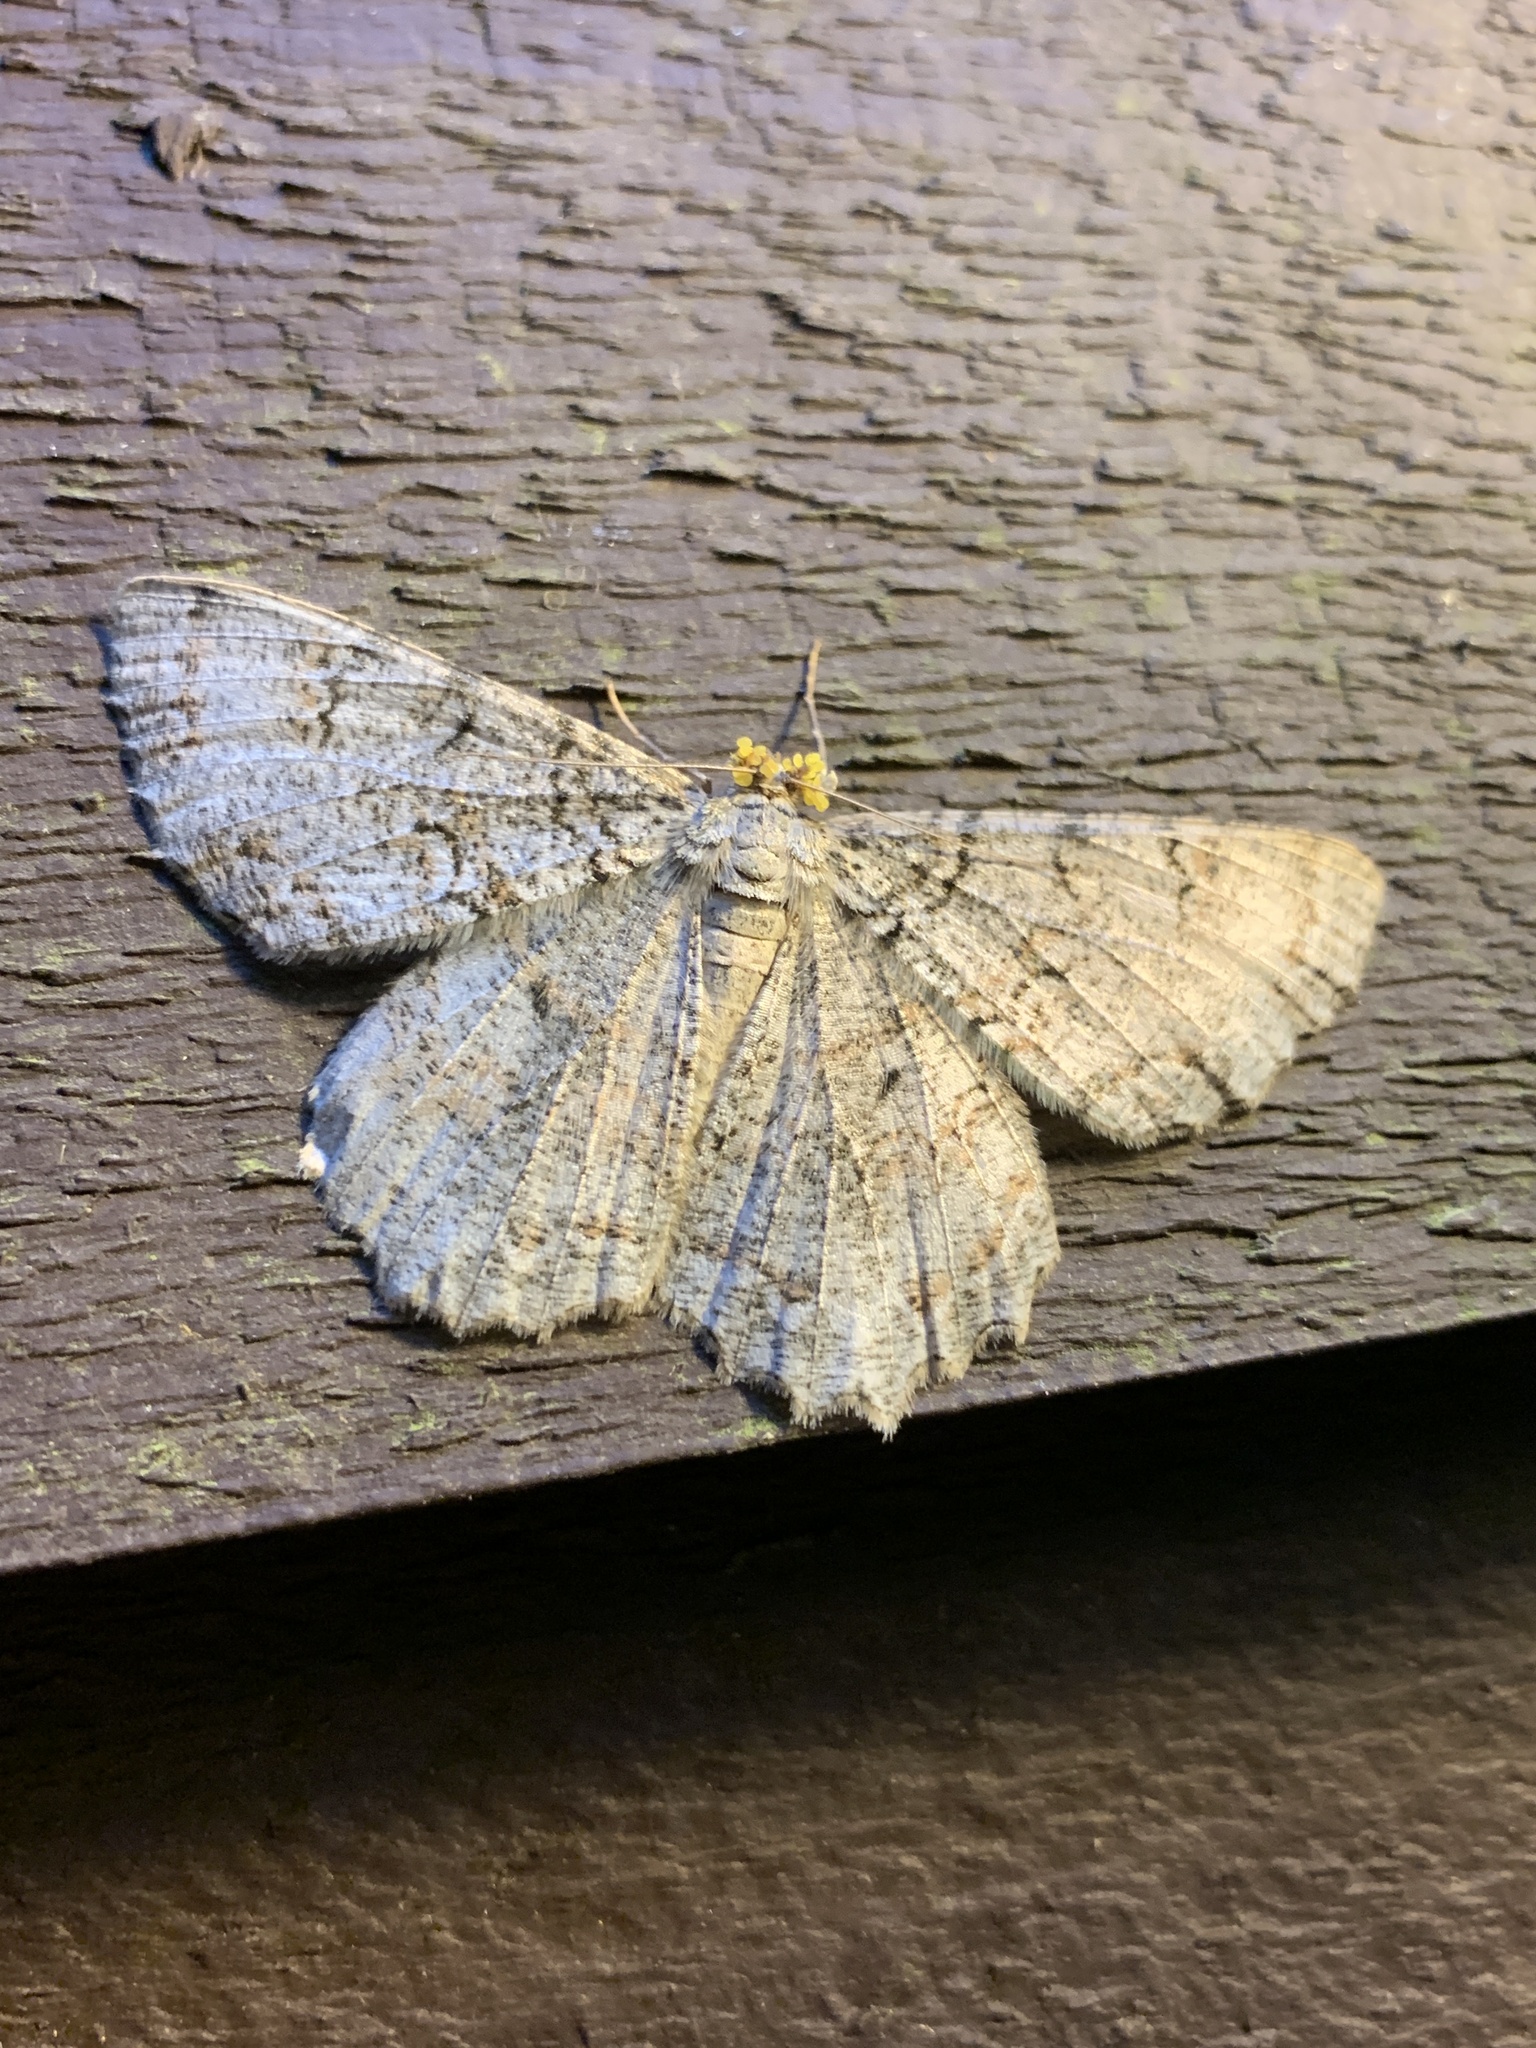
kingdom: Animalia
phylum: Arthropoda
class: Insecta
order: Lepidoptera
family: Geometridae
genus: Epimecis
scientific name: Epimecis hortaria
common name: Tulip-tree beauty
